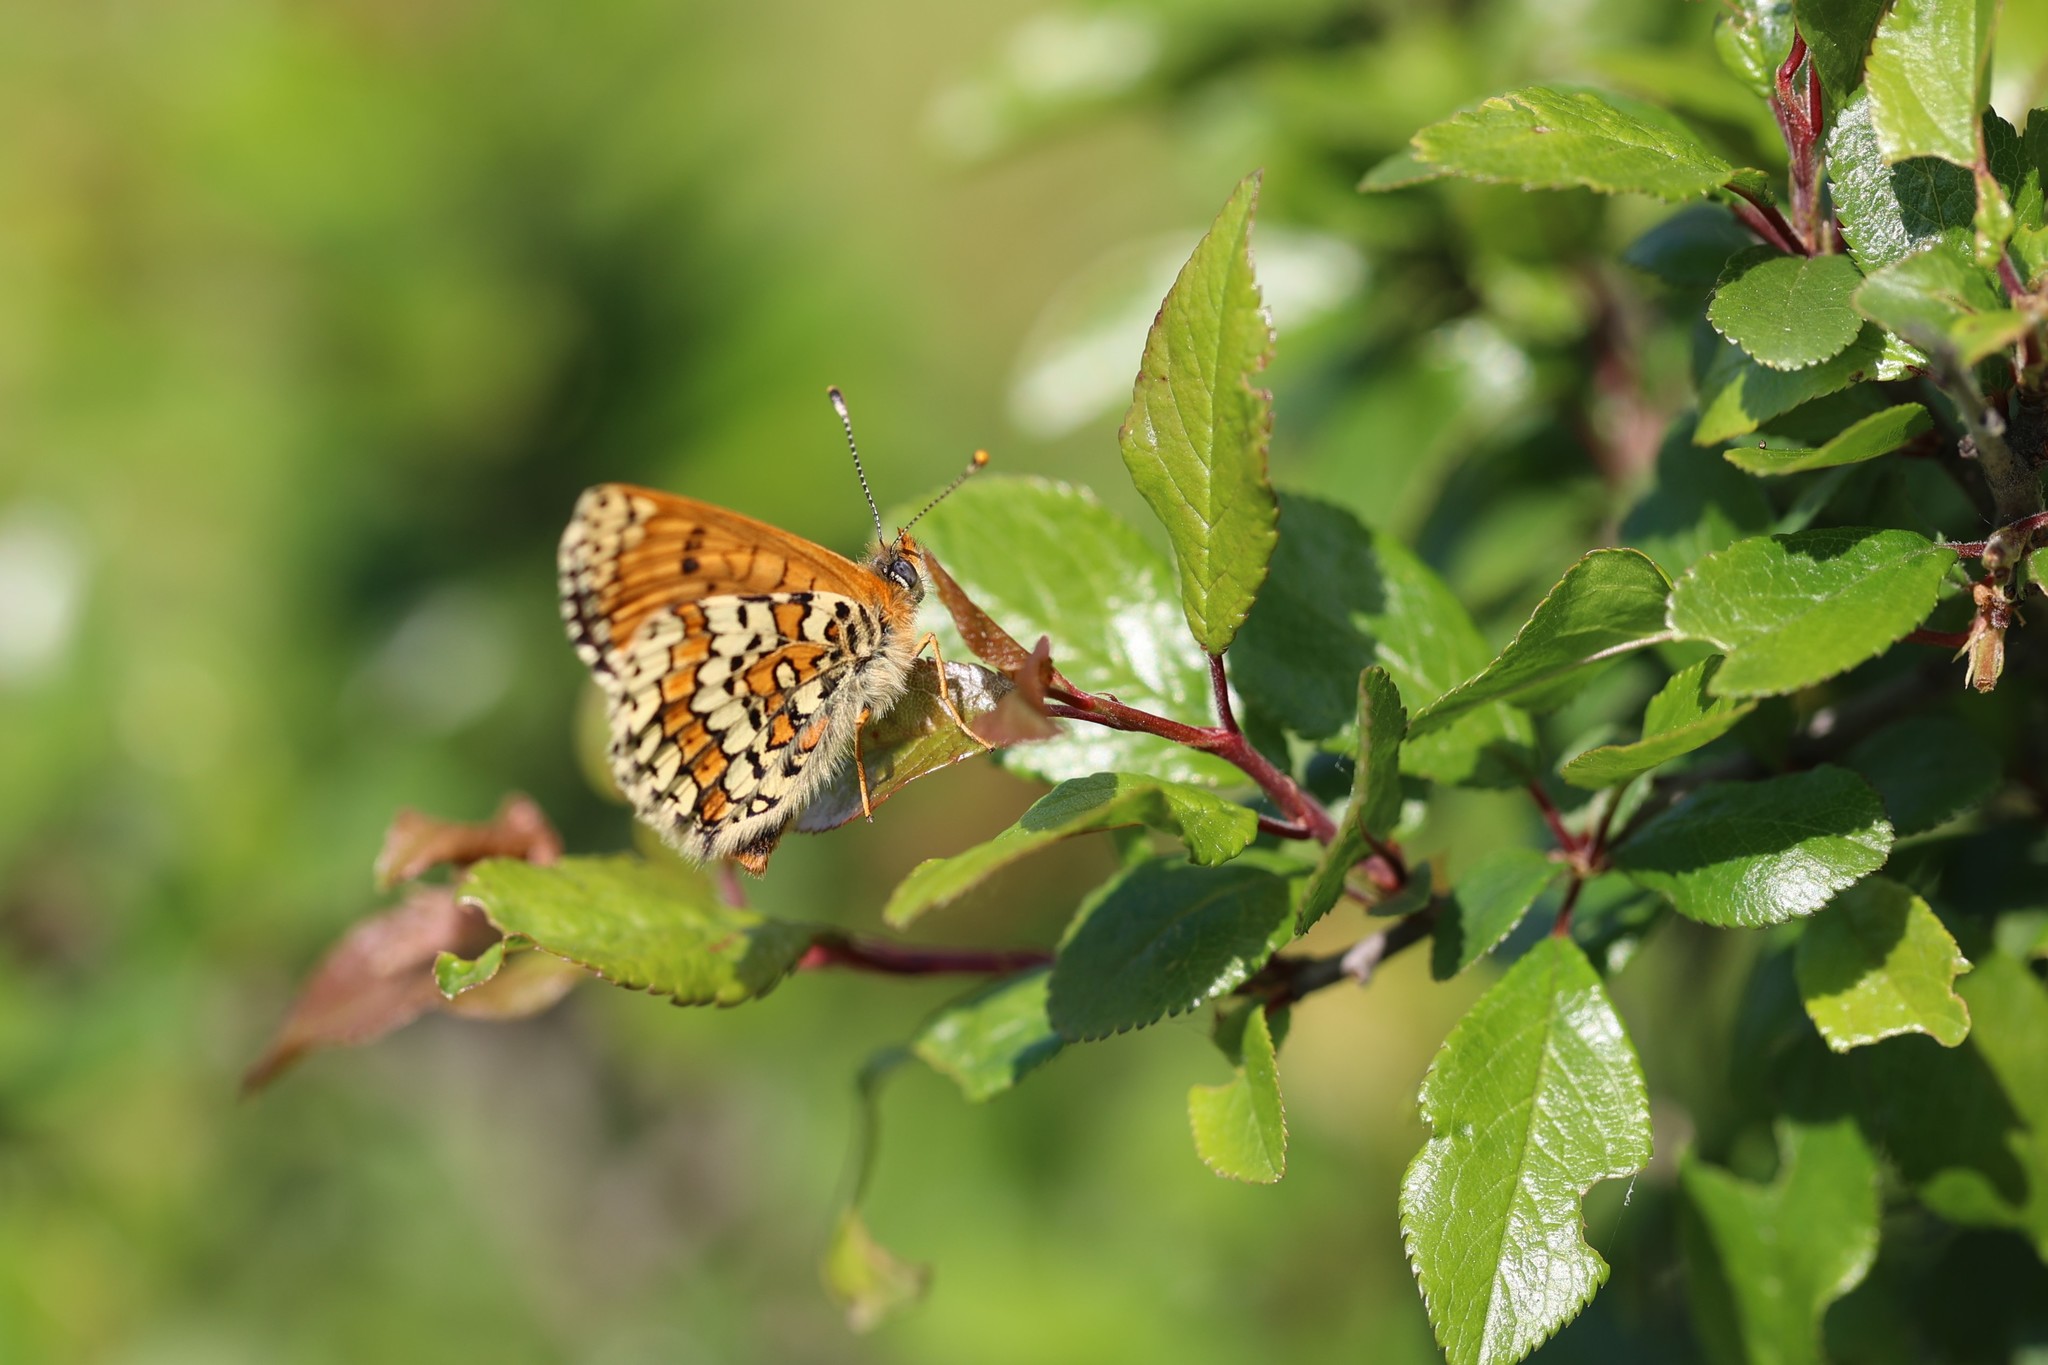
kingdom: Animalia
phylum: Arthropoda
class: Insecta
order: Lepidoptera
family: Nymphalidae
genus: Melitaea
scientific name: Melitaea cinxia
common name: Glanville fritillary
